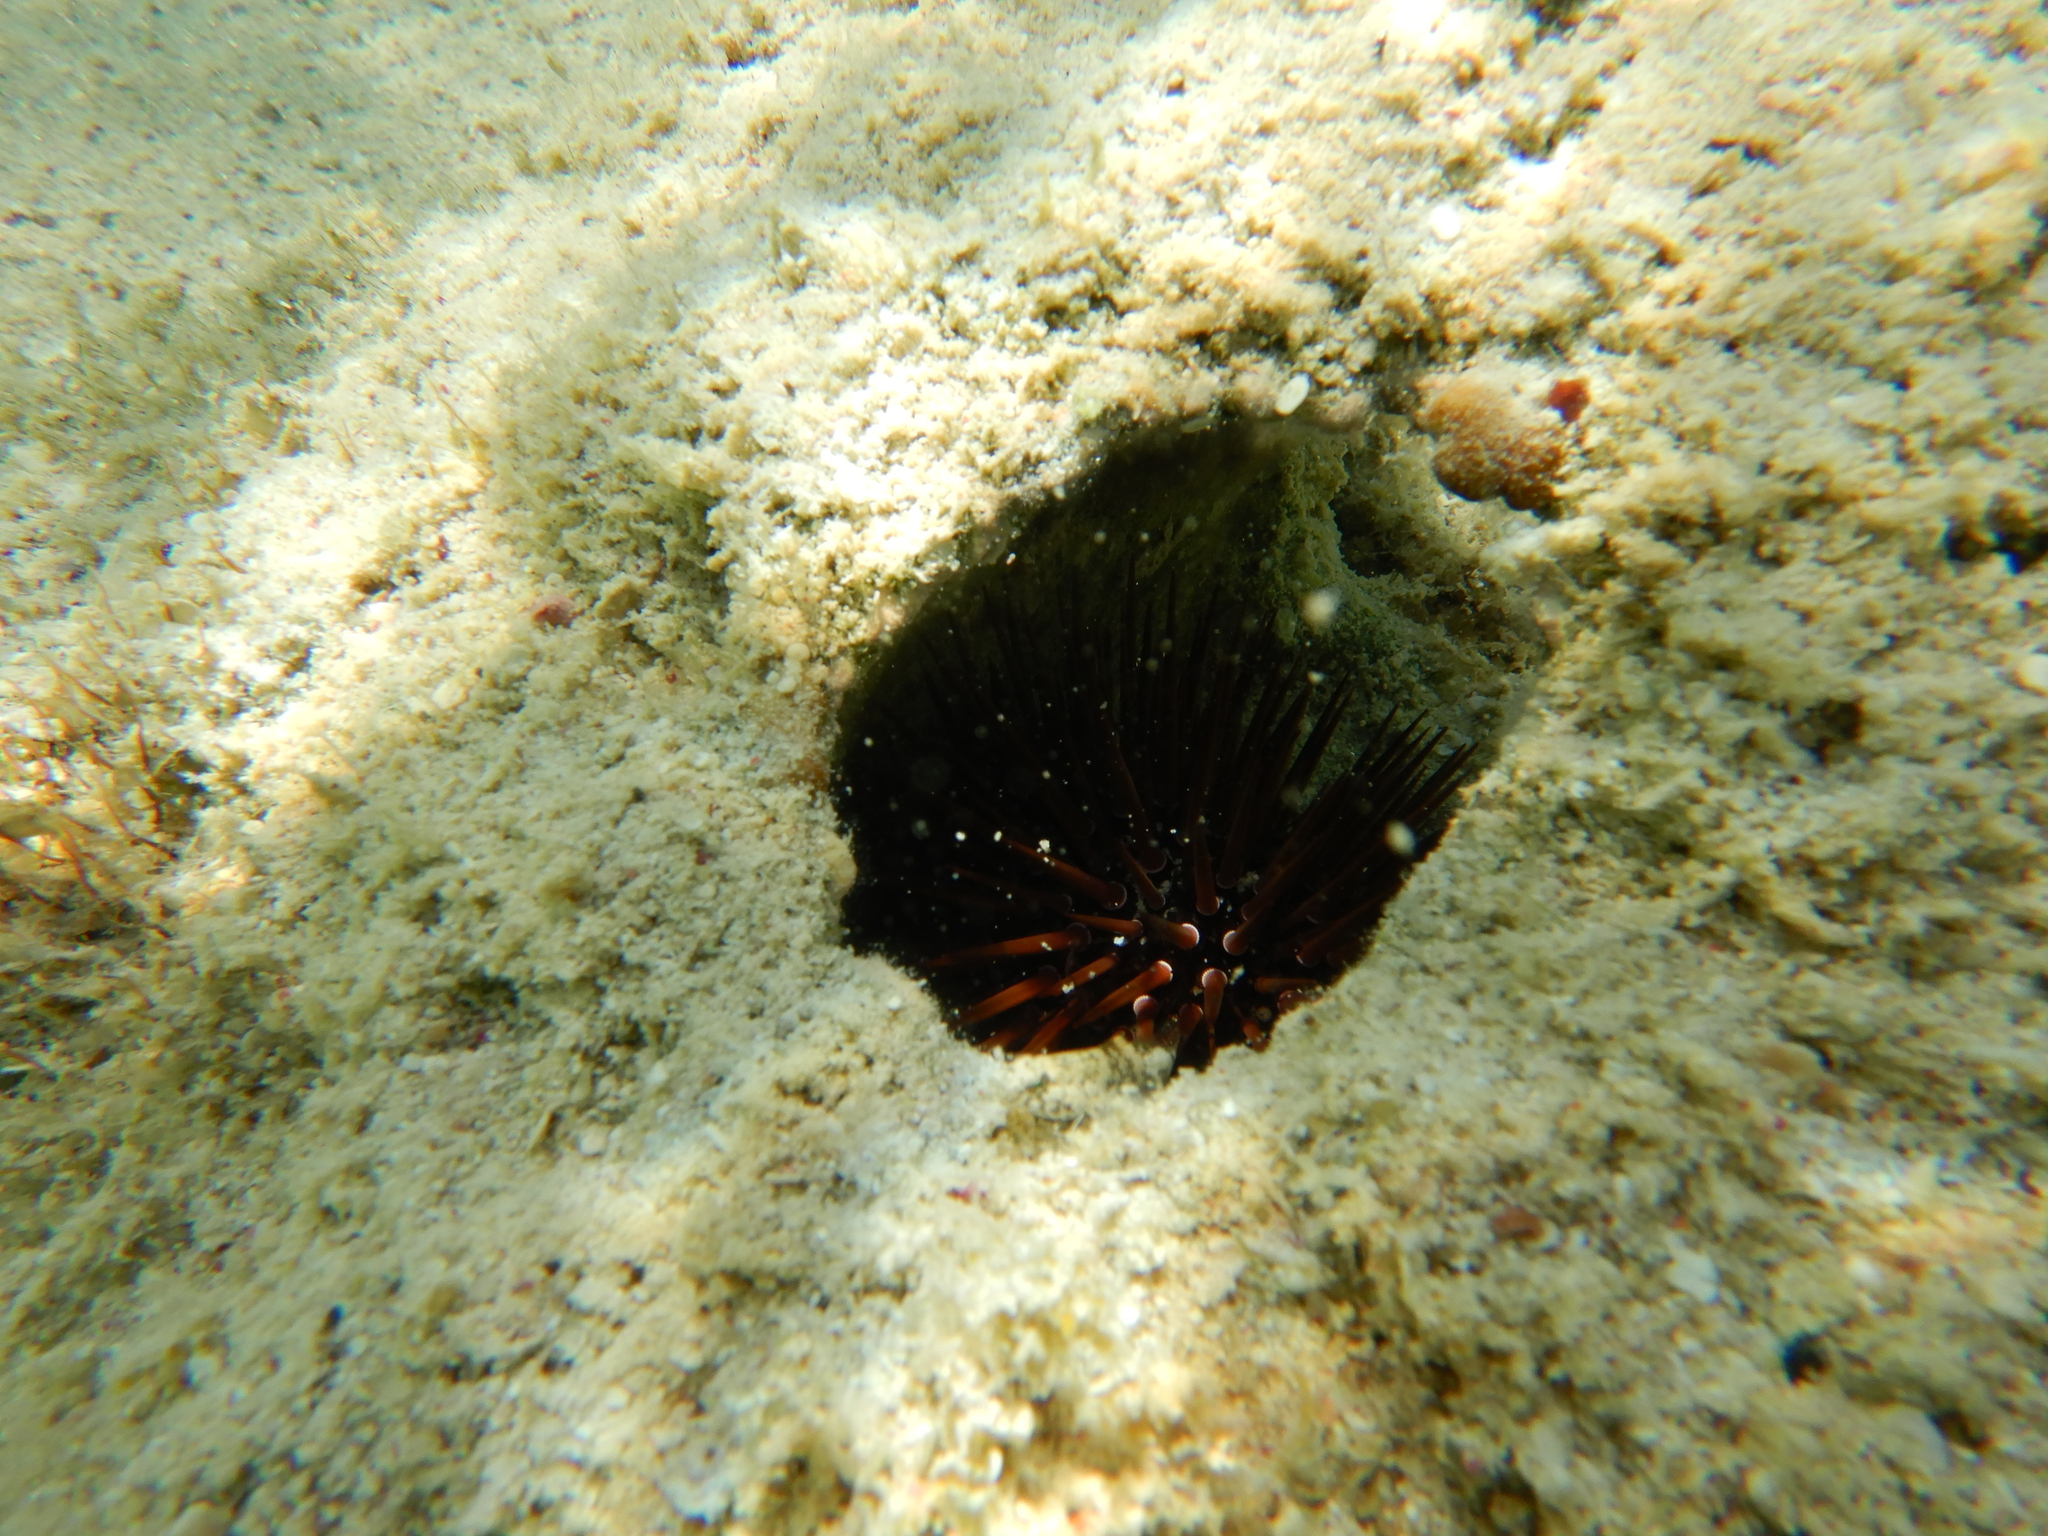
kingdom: Animalia
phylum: Echinodermata
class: Echinoidea
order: Camarodonta
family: Echinometridae
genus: Echinometra
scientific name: Echinometra mathaei
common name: Rock-boring urchin
